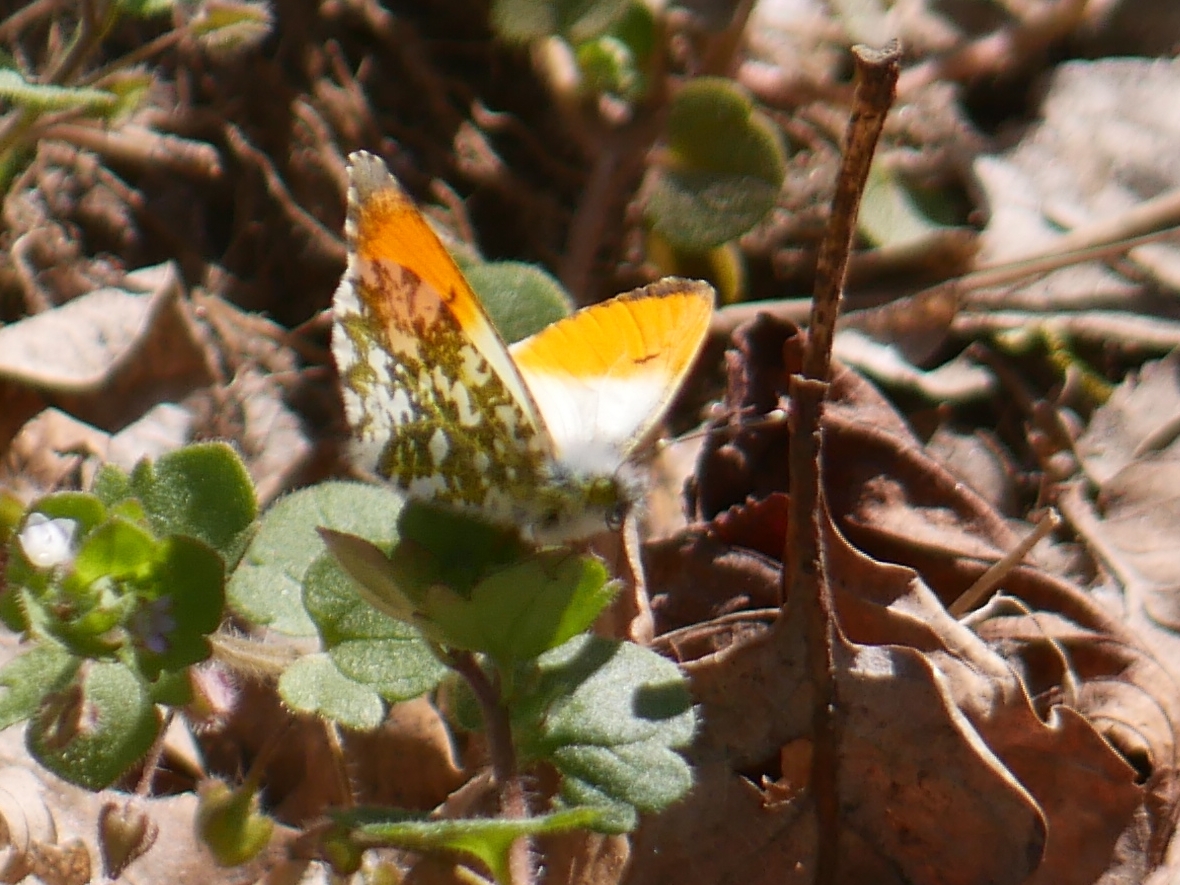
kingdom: Animalia
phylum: Arthropoda
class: Insecta
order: Lepidoptera
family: Pieridae
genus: Anthocharis
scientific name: Anthocharis cardamines
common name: Orange-tip
